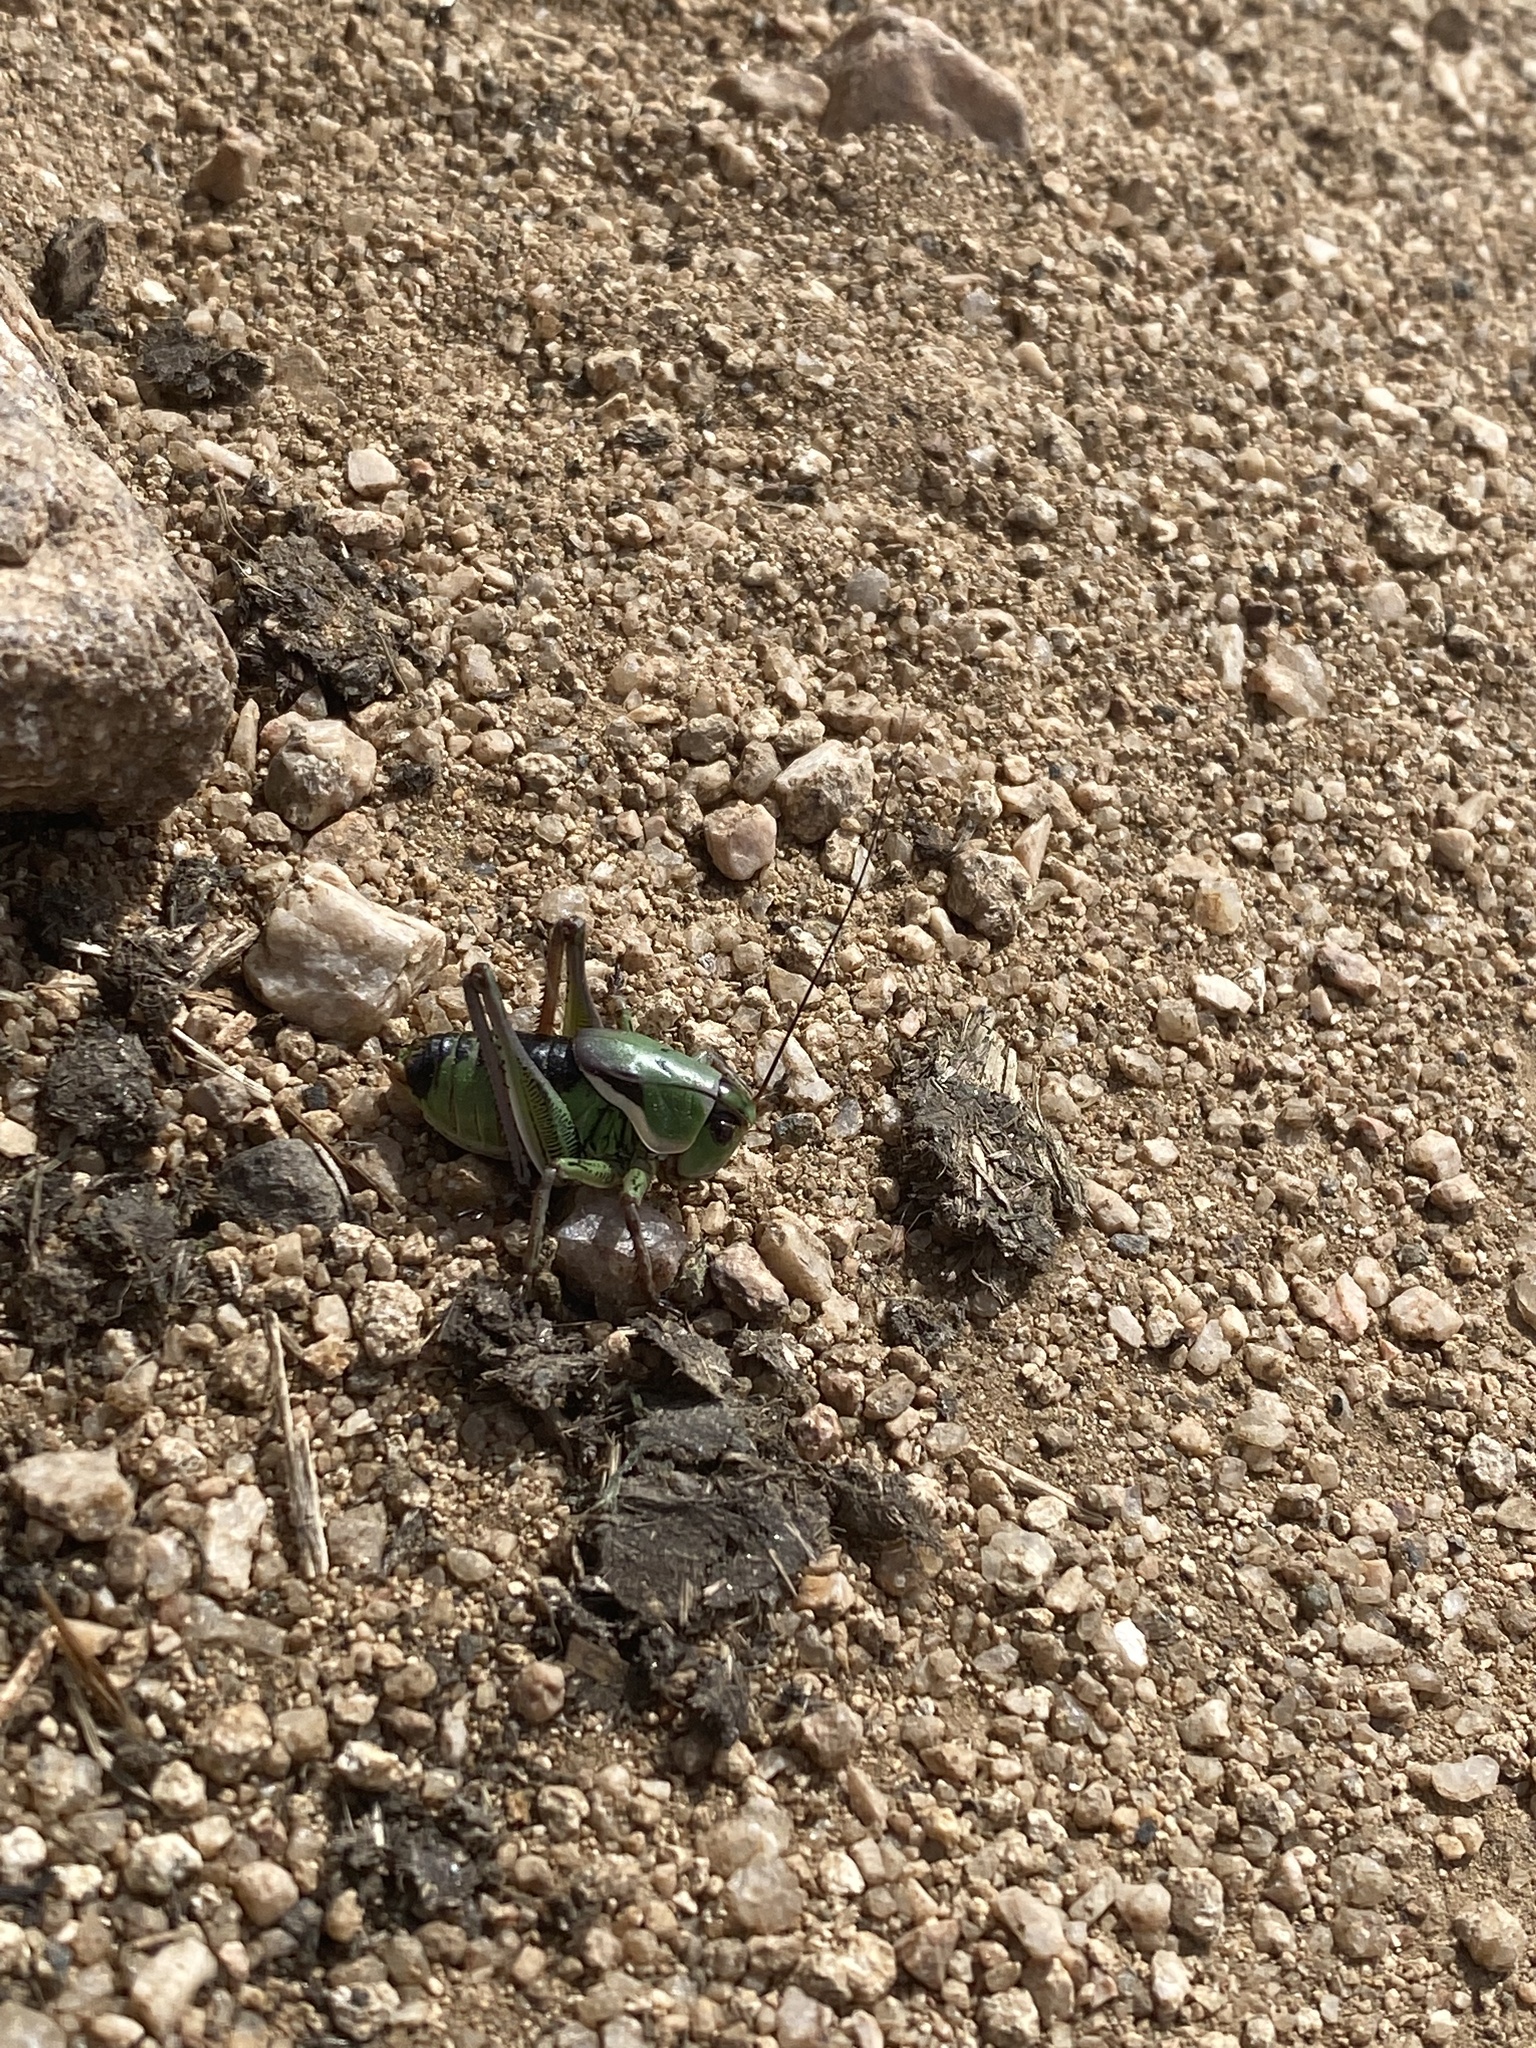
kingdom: Animalia
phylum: Arthropoda
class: Insecta
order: Orthoptera
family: Tettigoniidae
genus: Anabrus
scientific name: Anabrus simplex
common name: Mormon cricket
